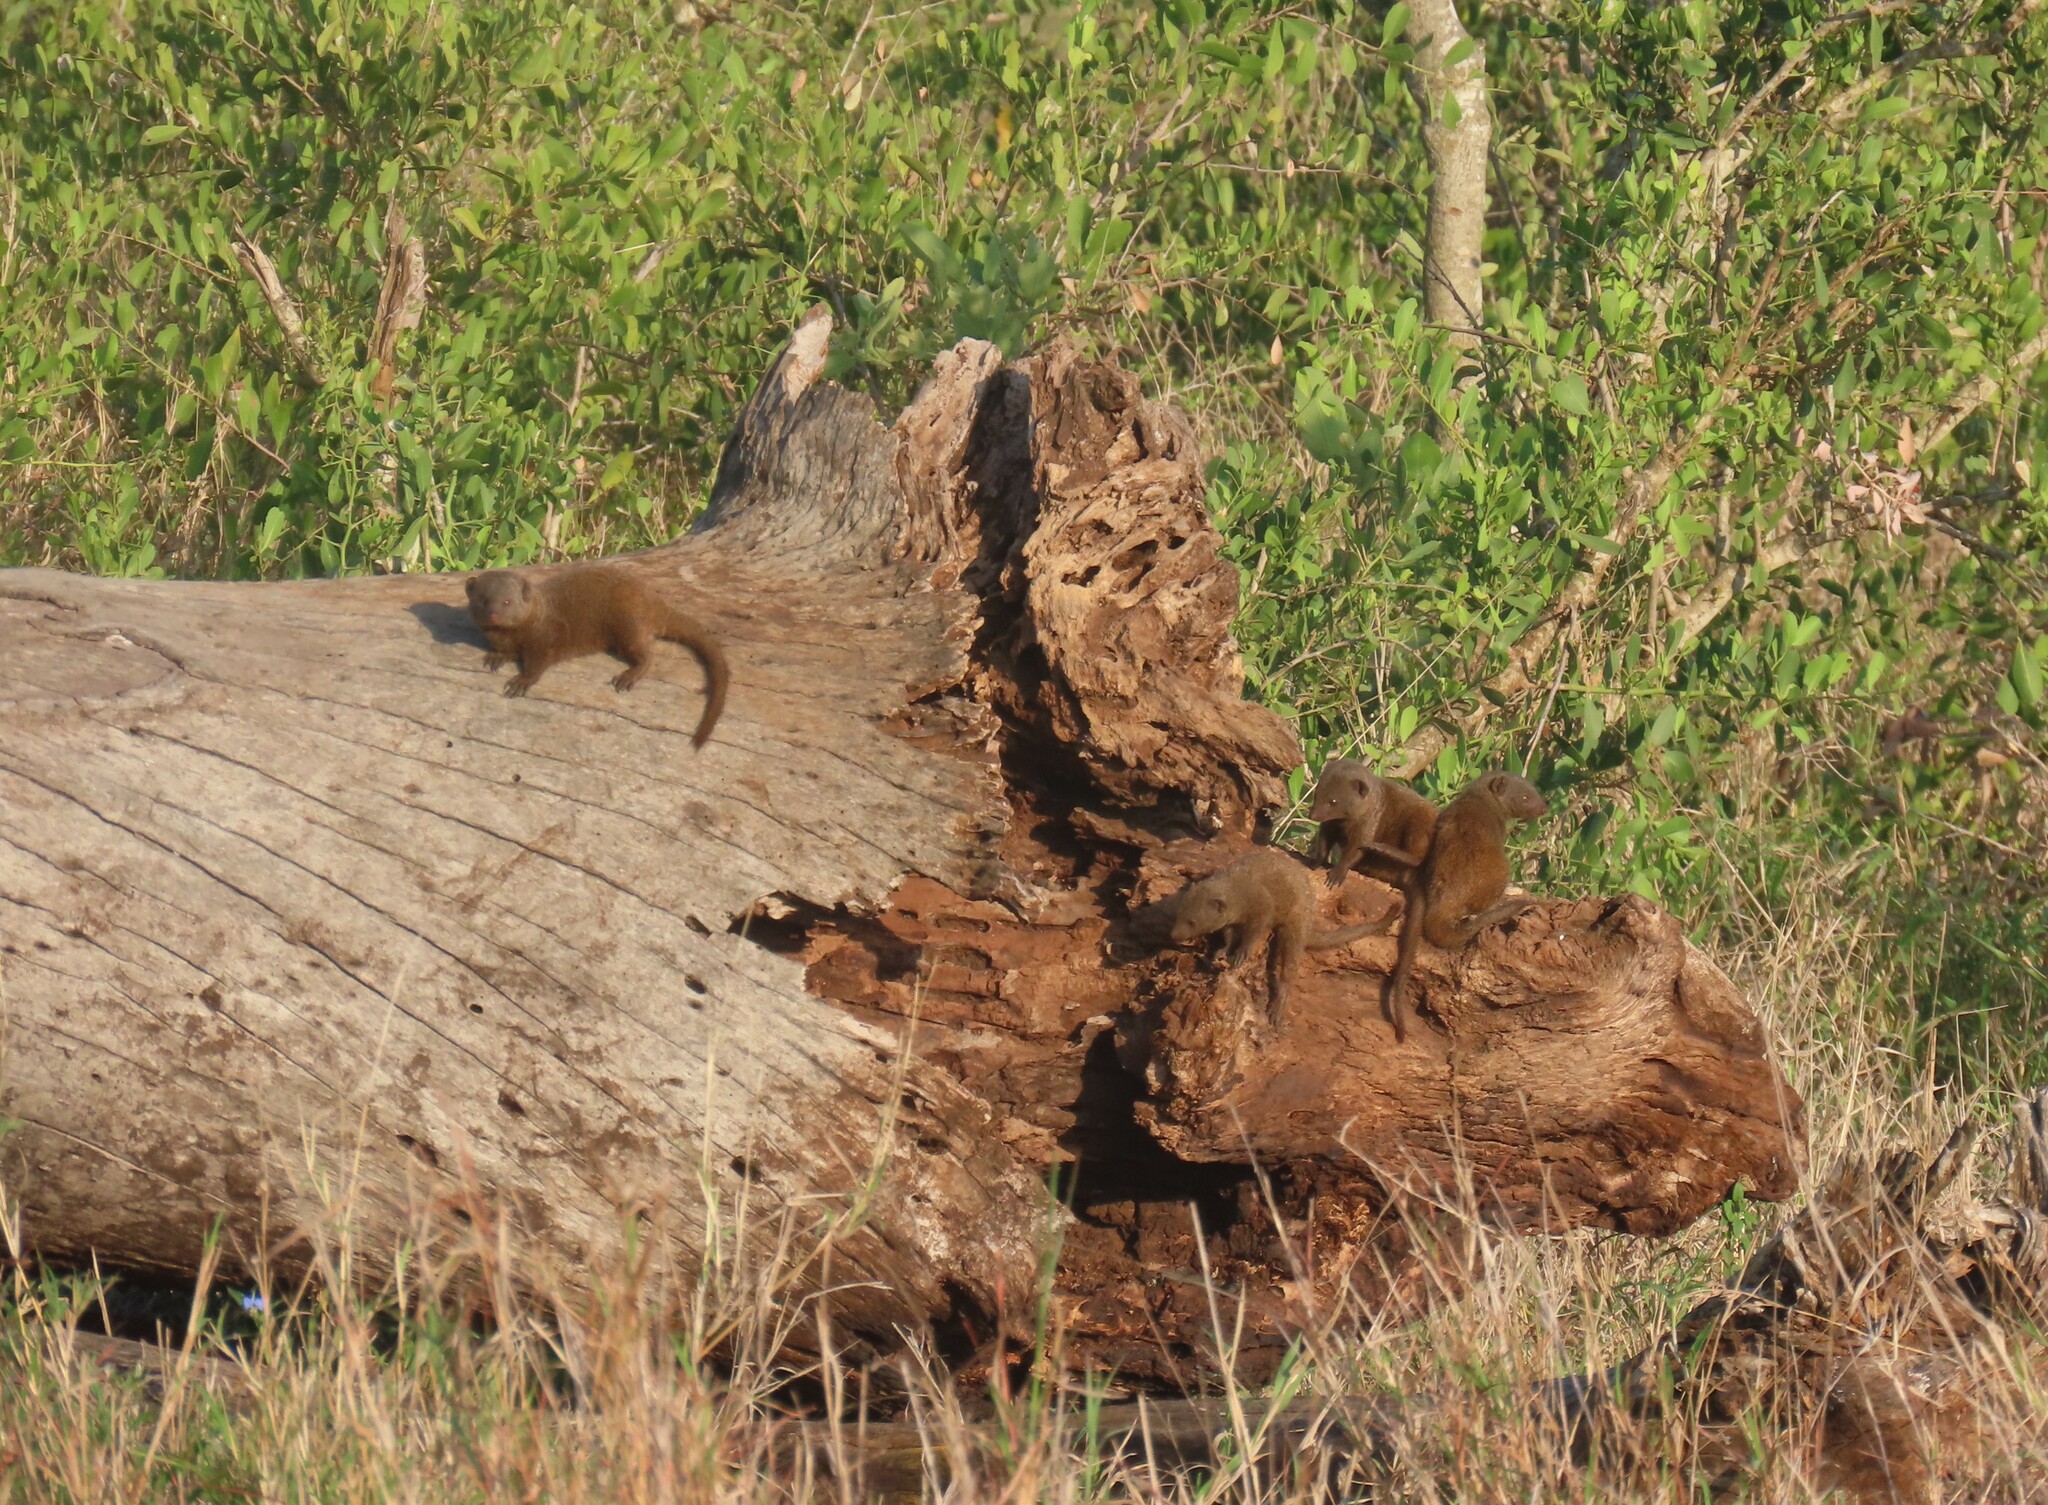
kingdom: Animalia
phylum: Chordata
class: Mammalia
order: Carnivora
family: Herpestidae
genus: Helogale
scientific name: Helogale parvula
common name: Common dwarf mongoose
